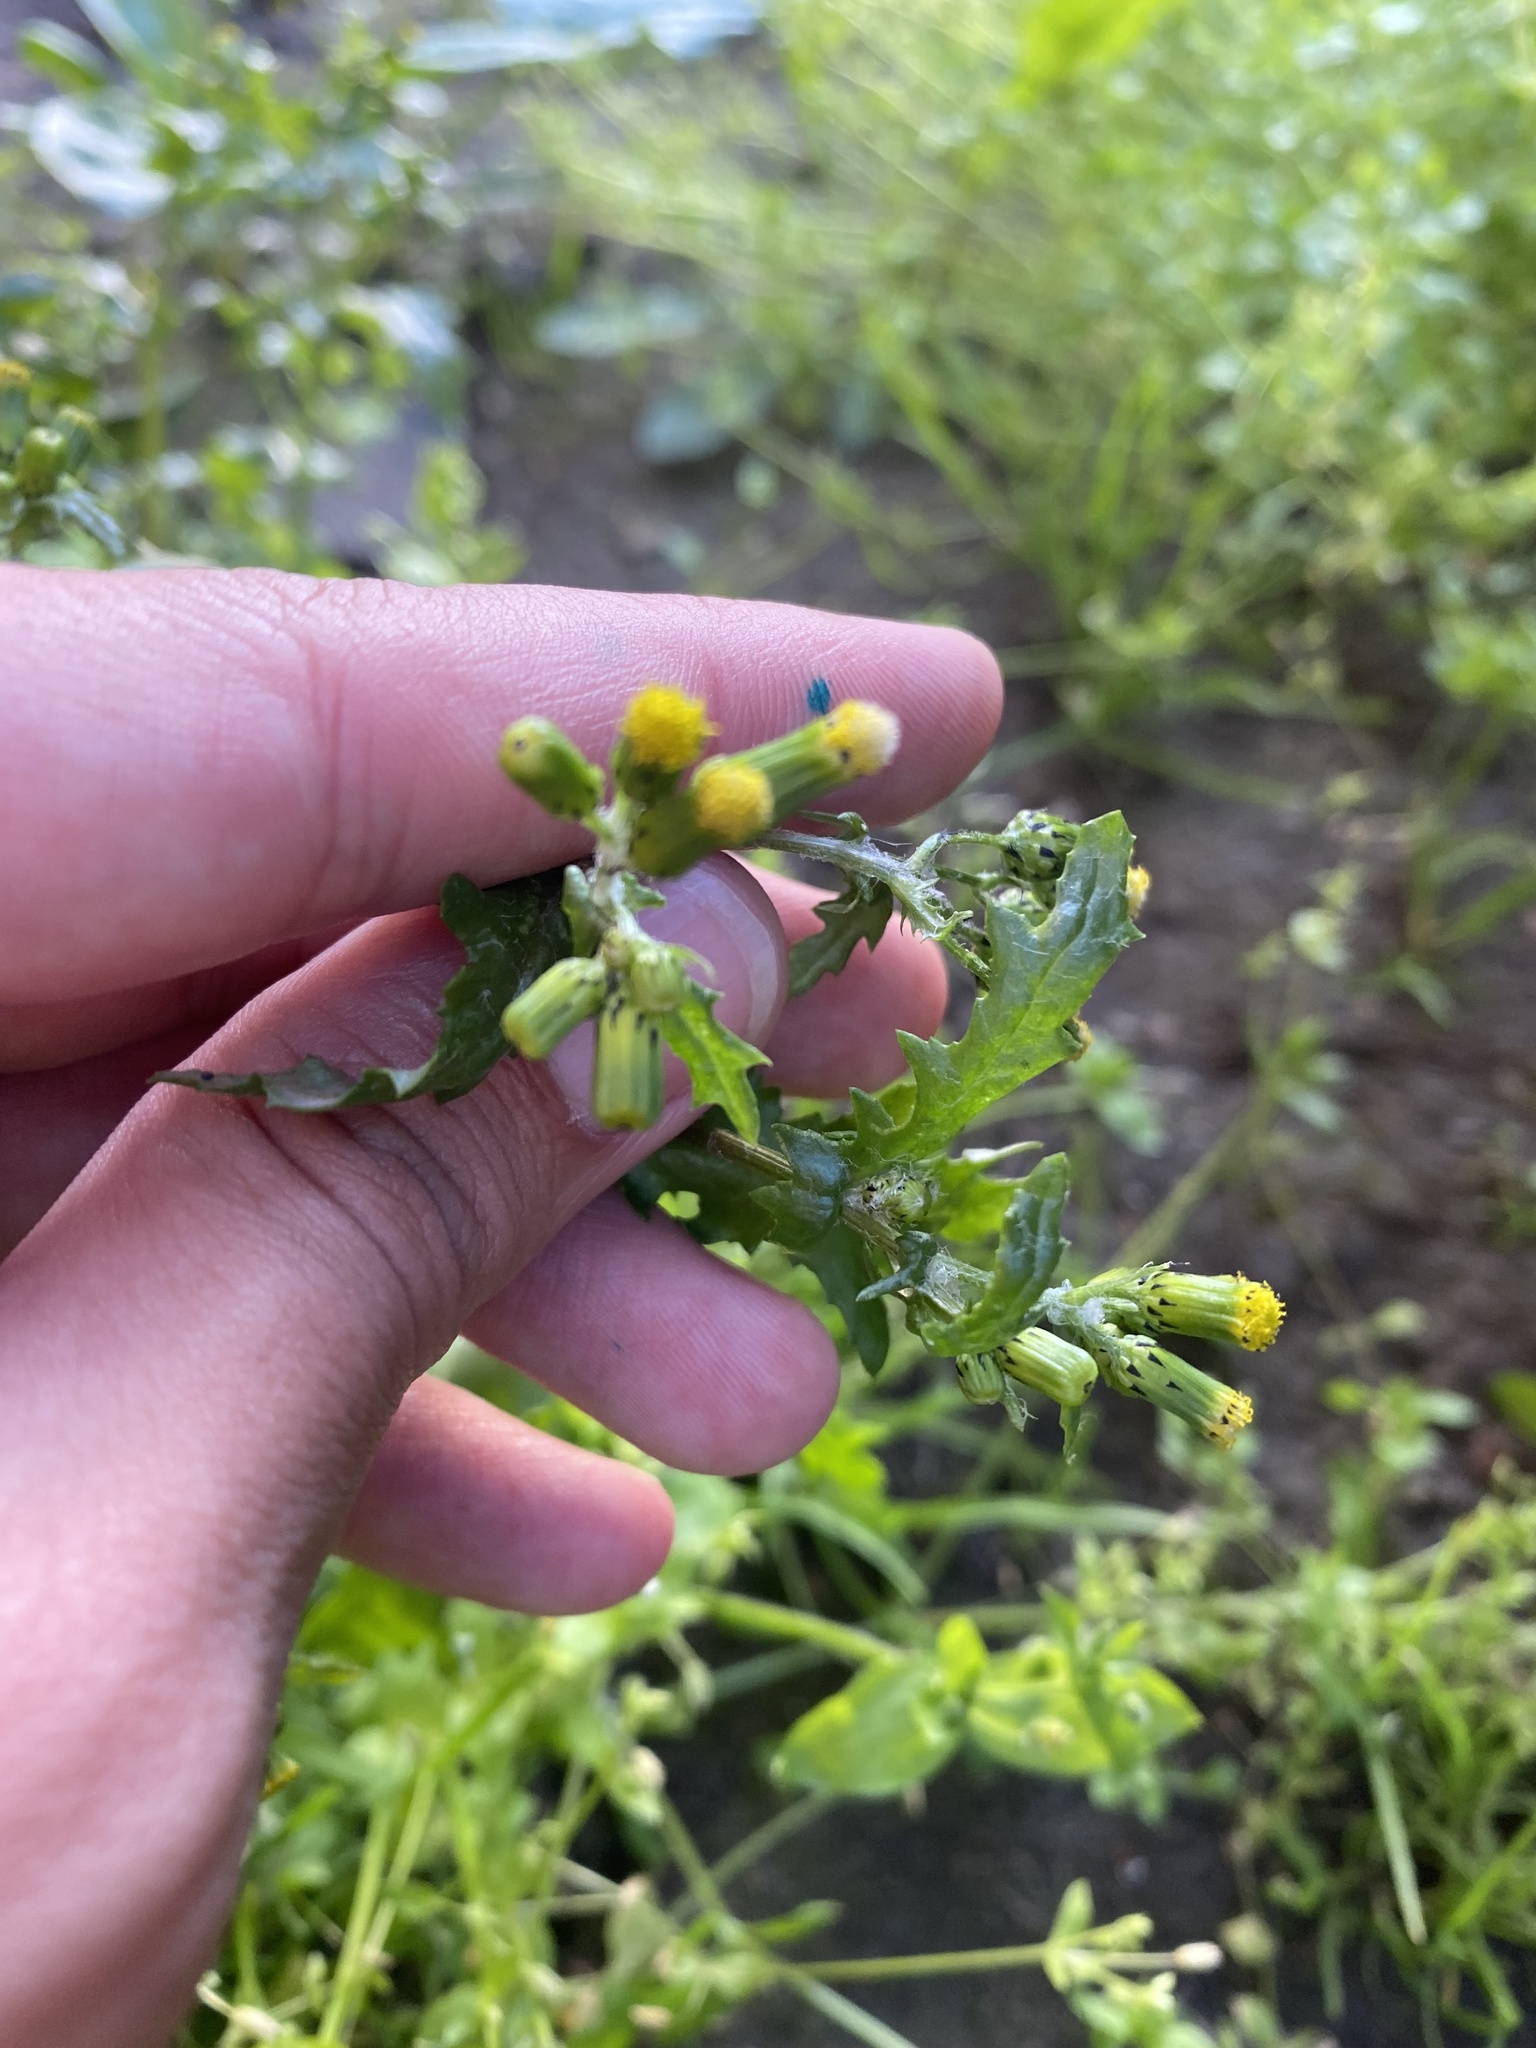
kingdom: Plantae
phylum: Tracheophyta
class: Magnoliopsida
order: Asterales
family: Asteraceae
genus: Senecio
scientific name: Senecio vulgaris
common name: Old-man-in-the-spring
